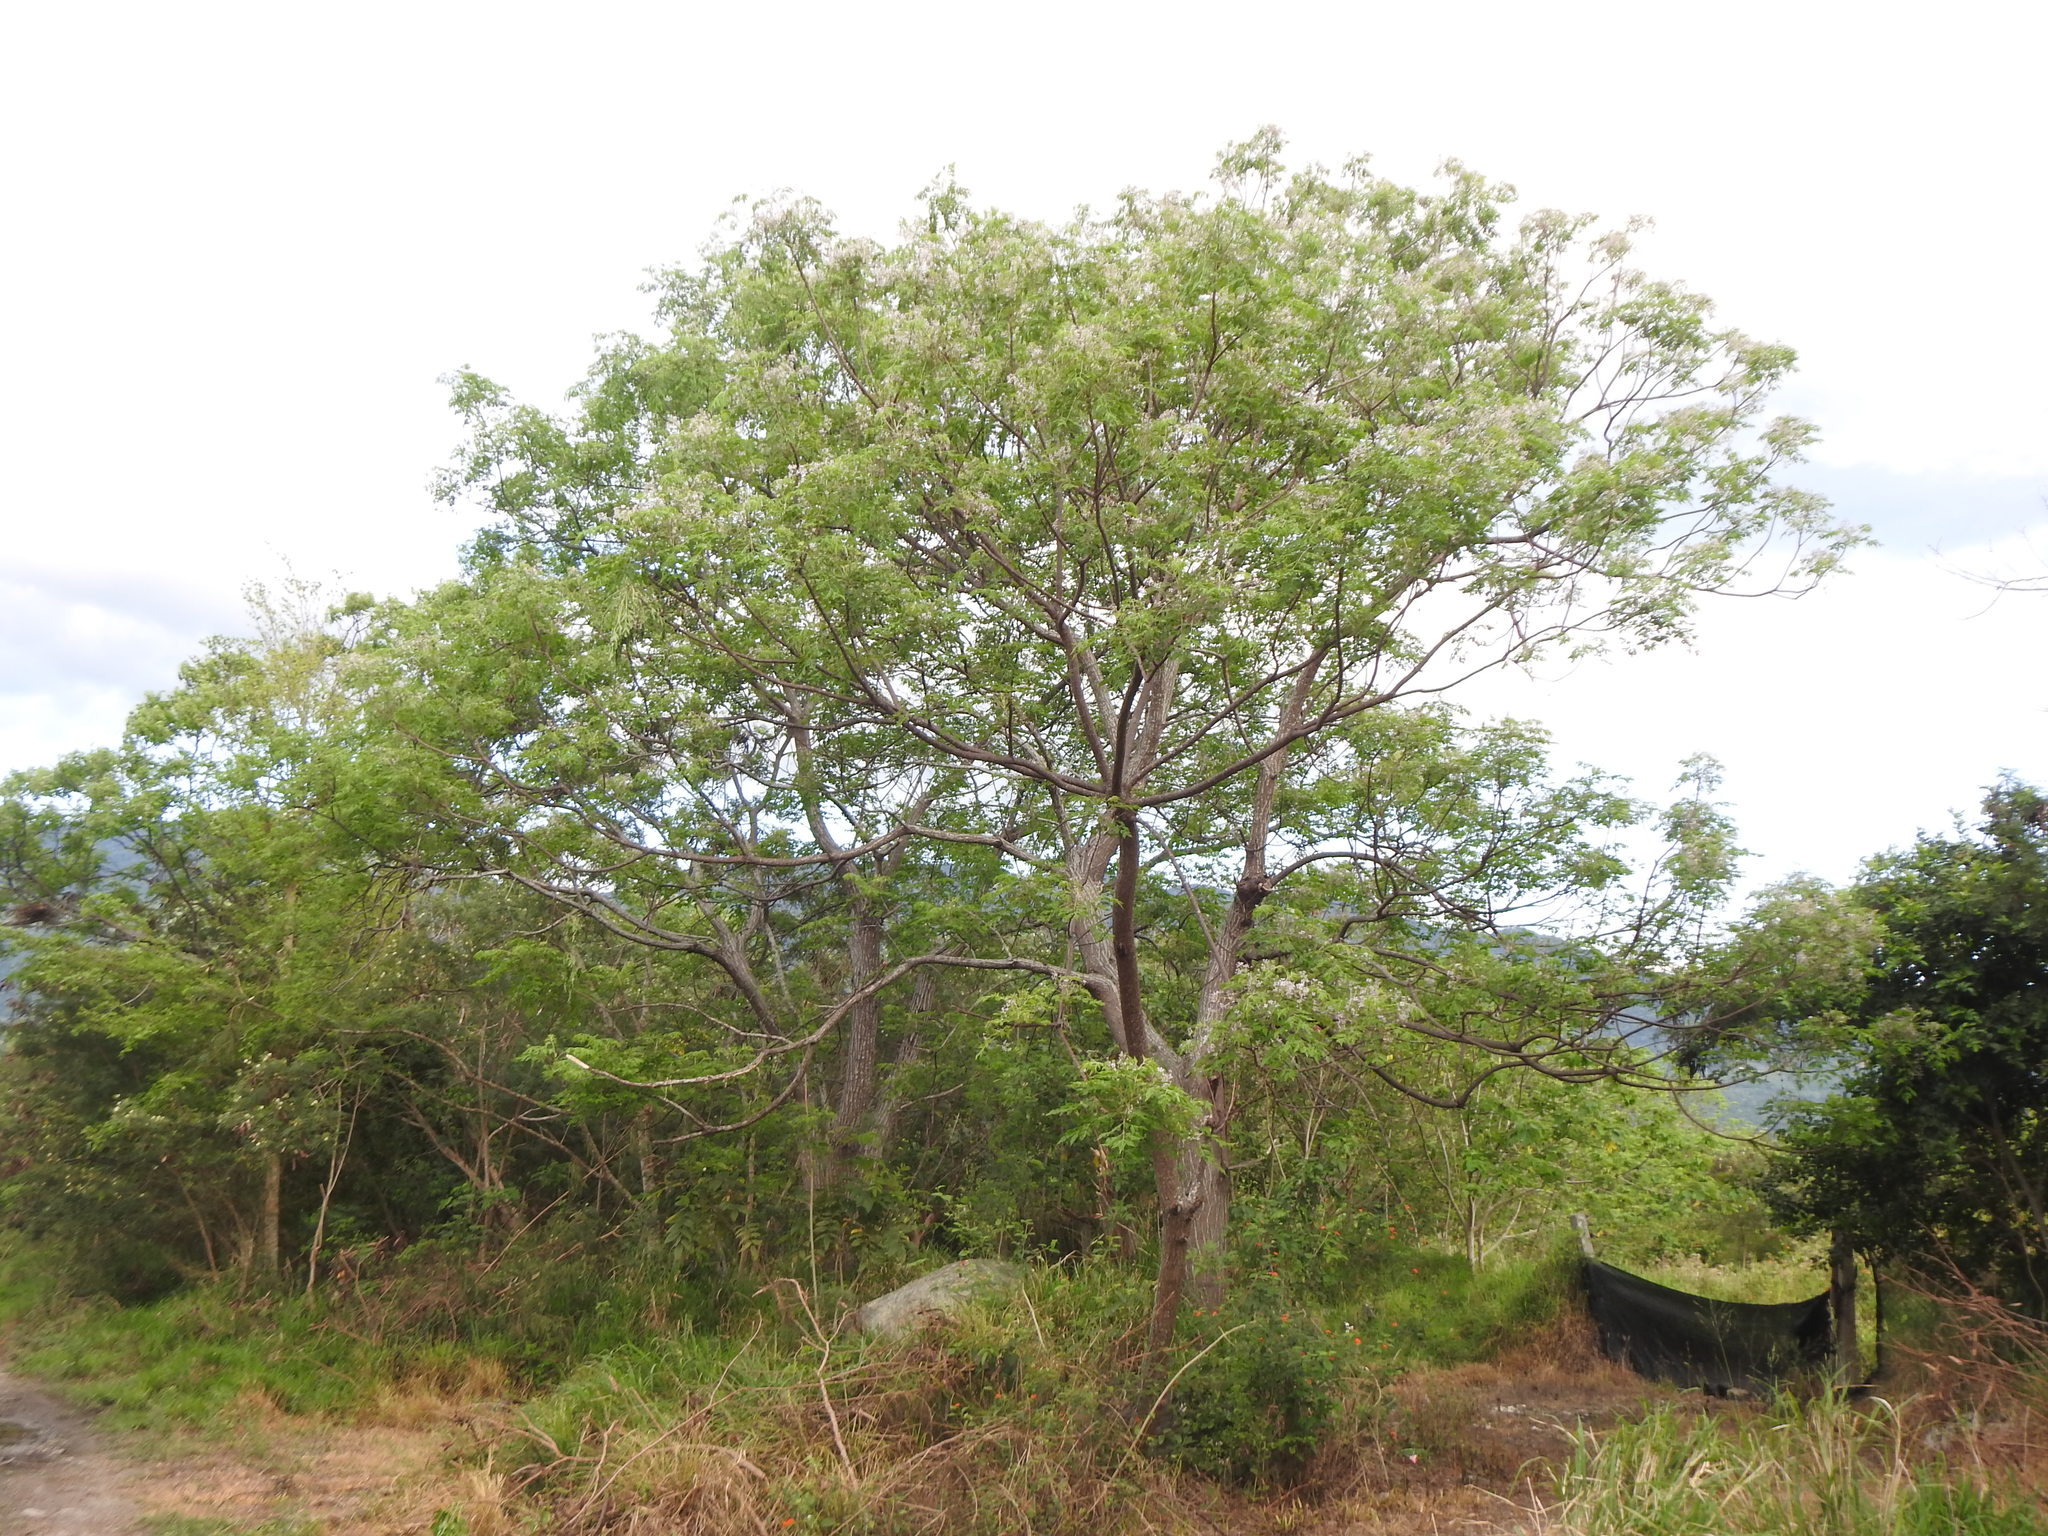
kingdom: Plantae
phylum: Tracheophyta
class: Magnoliopsida
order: Sapindales
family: Meliaceae
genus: Melia
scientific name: Melia azedarach
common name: Chinaberrytree
